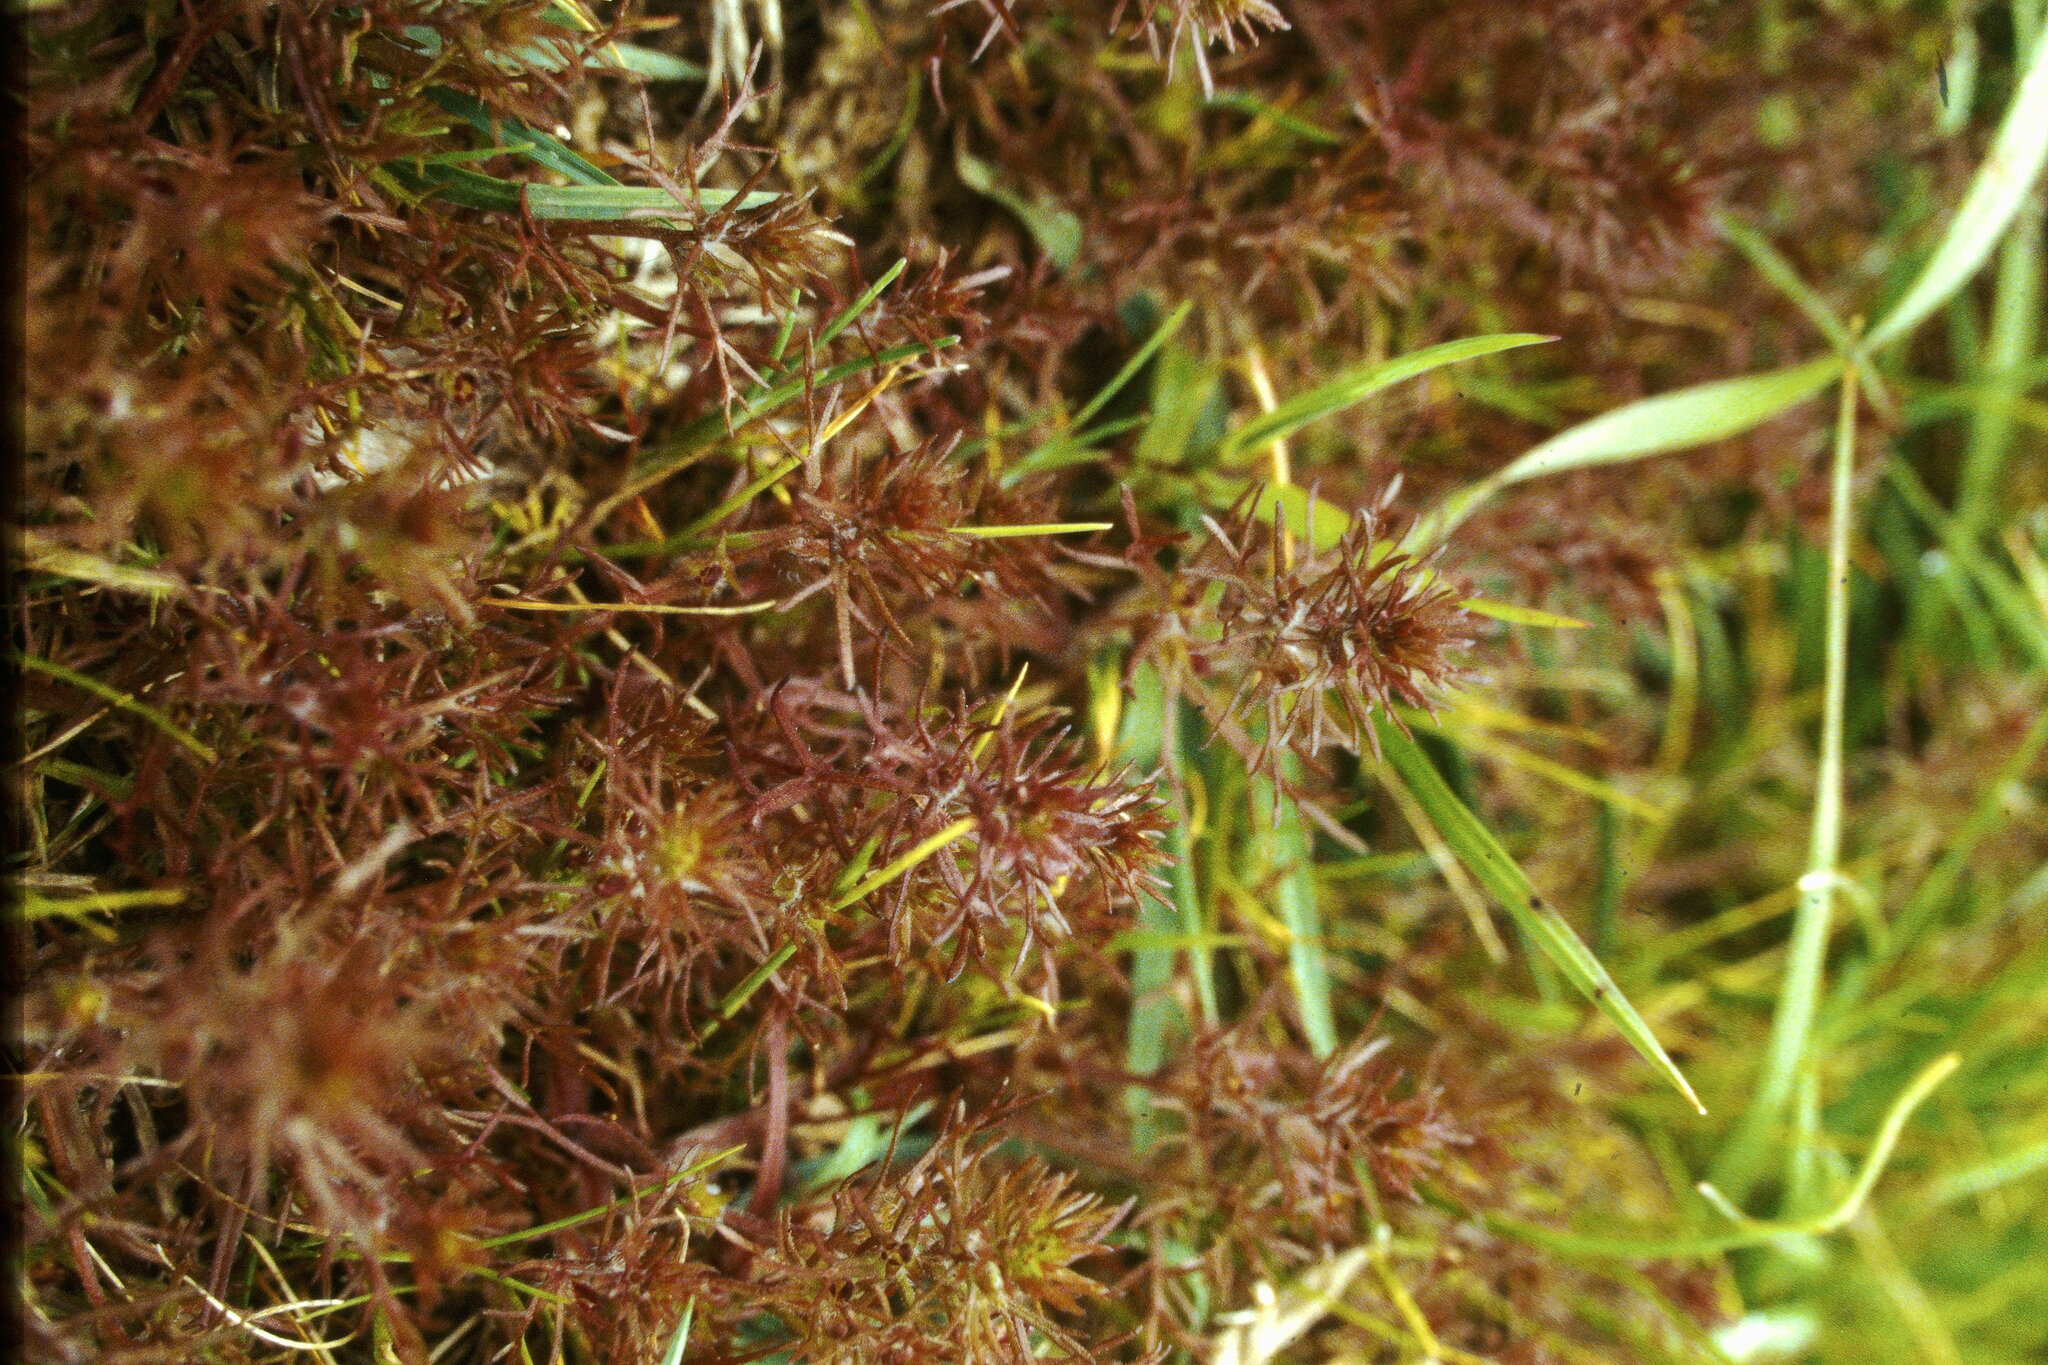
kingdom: Plantae
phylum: Tracheophyta
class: Magnoliopsida
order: Lamiales
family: Orobanchaceae
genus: Triphysaria
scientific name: Triphysaria pusilla
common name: Dwarf false owl-clover
